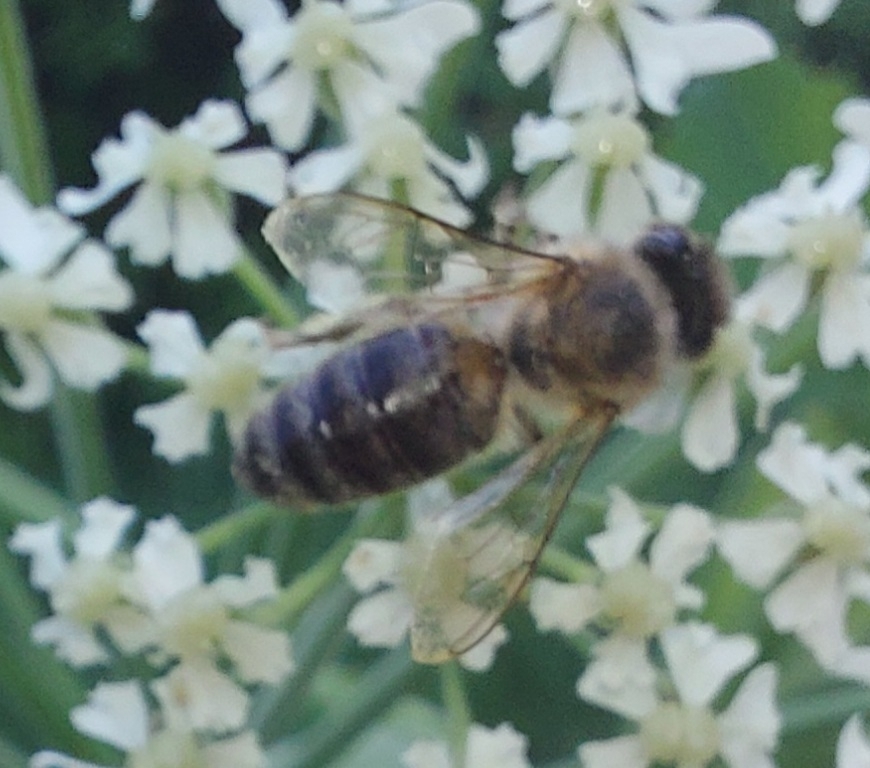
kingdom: Animalia
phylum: Arthropoda
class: Insecta
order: Hymenoptera
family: Apidae
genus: Apis
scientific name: Apis mellifera
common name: Honey bee
